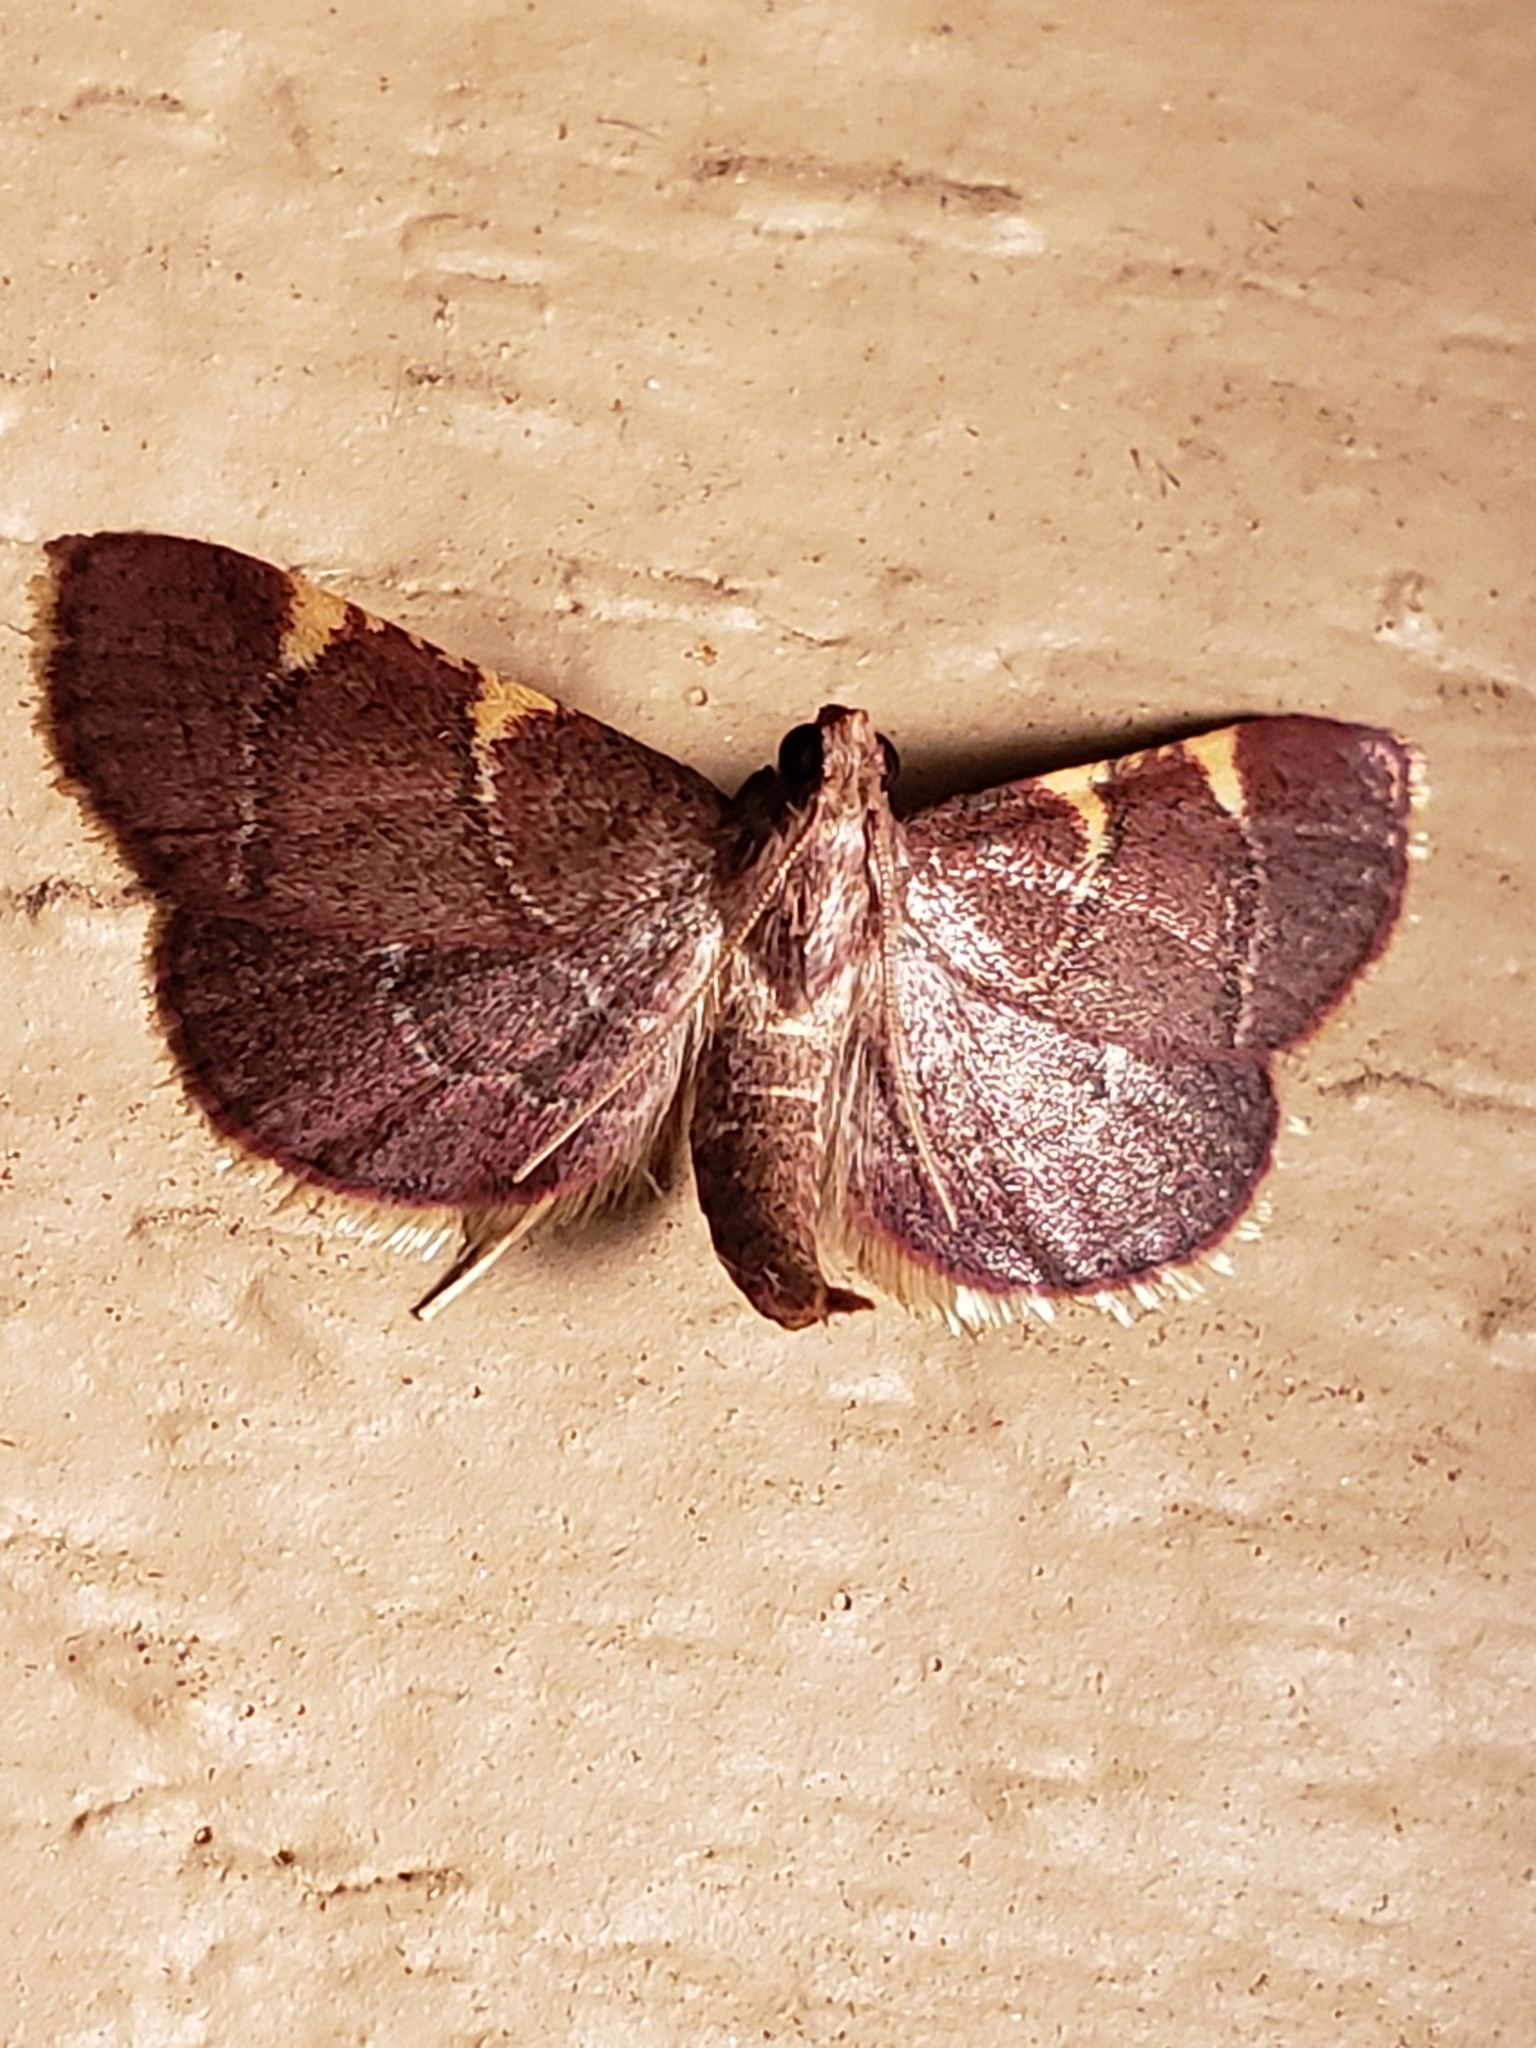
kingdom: Animalia
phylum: Arthropoda
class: Insecta
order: Lepidoptera
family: Pyralidae
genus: Hypsopygia
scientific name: Hypsopygia olinalis
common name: Yellow-fringed dolichomia moth
